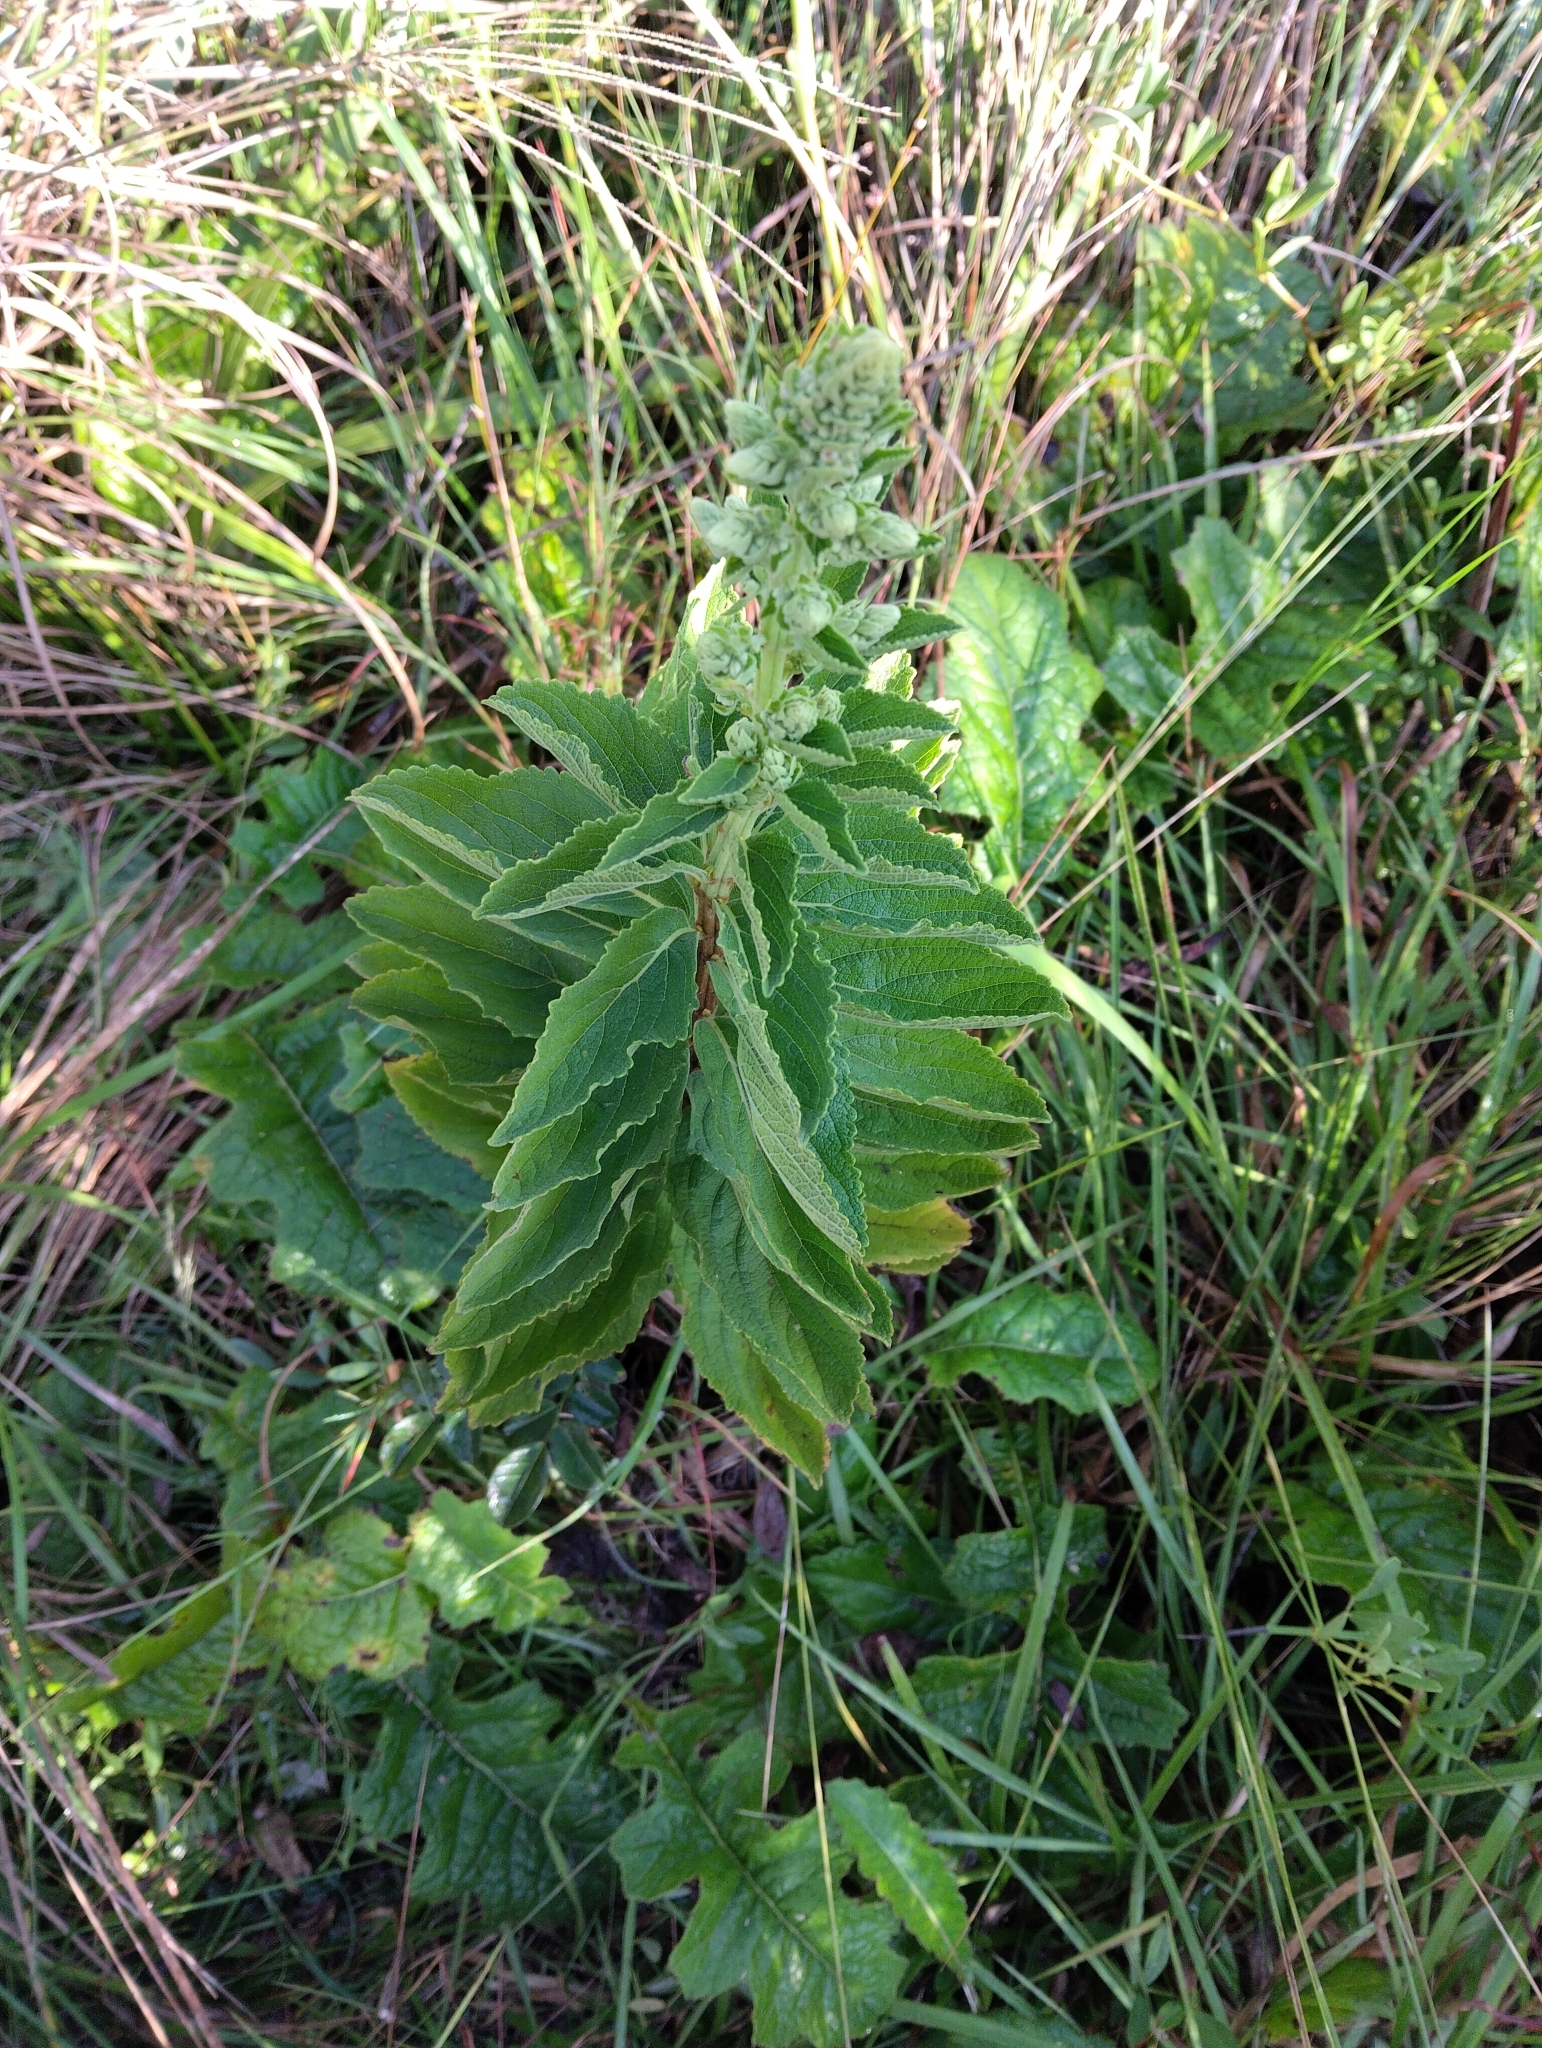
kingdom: Plantae
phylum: Tracheophyta
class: Magnoliopsida
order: Lamiales
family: Lamiaceae
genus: Coleus
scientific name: Coleus calycinus
